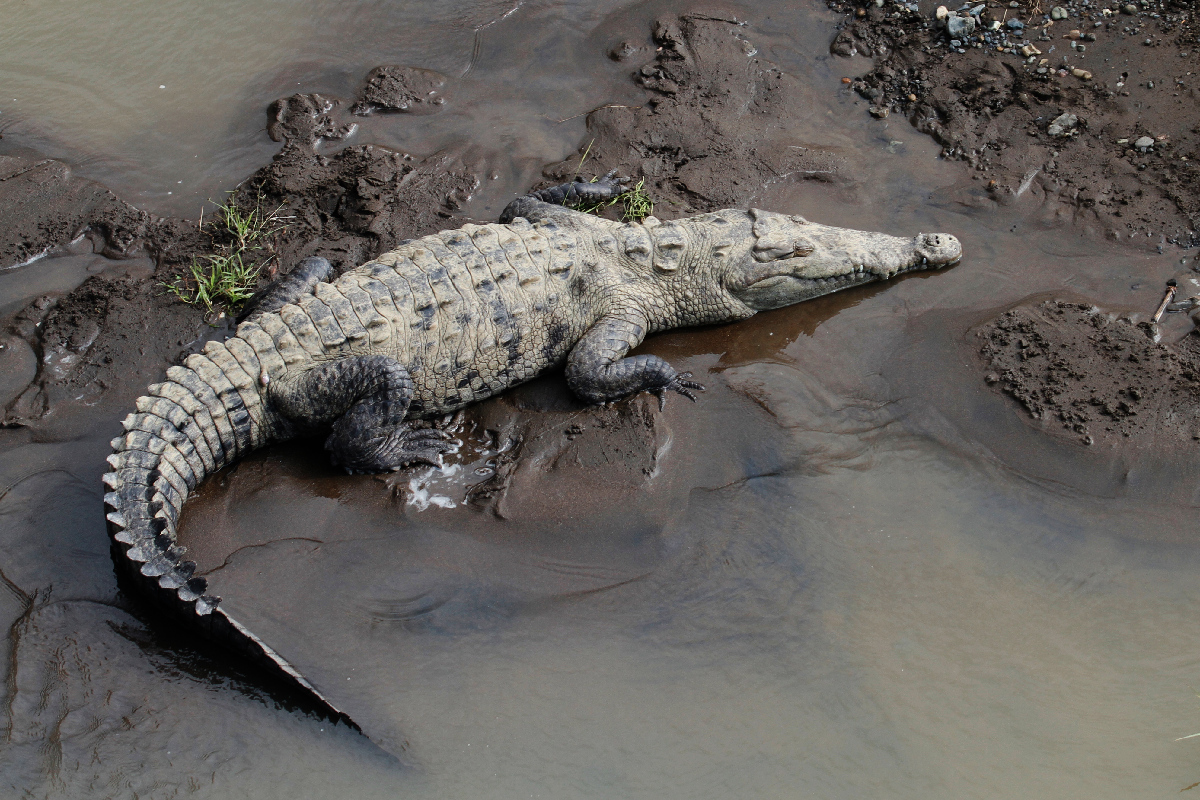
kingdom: Animalia
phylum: Chordata
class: Crocodylia
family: Crocodylidae
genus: Crocodylus
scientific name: Crocodylus acutus
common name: American crocodile
